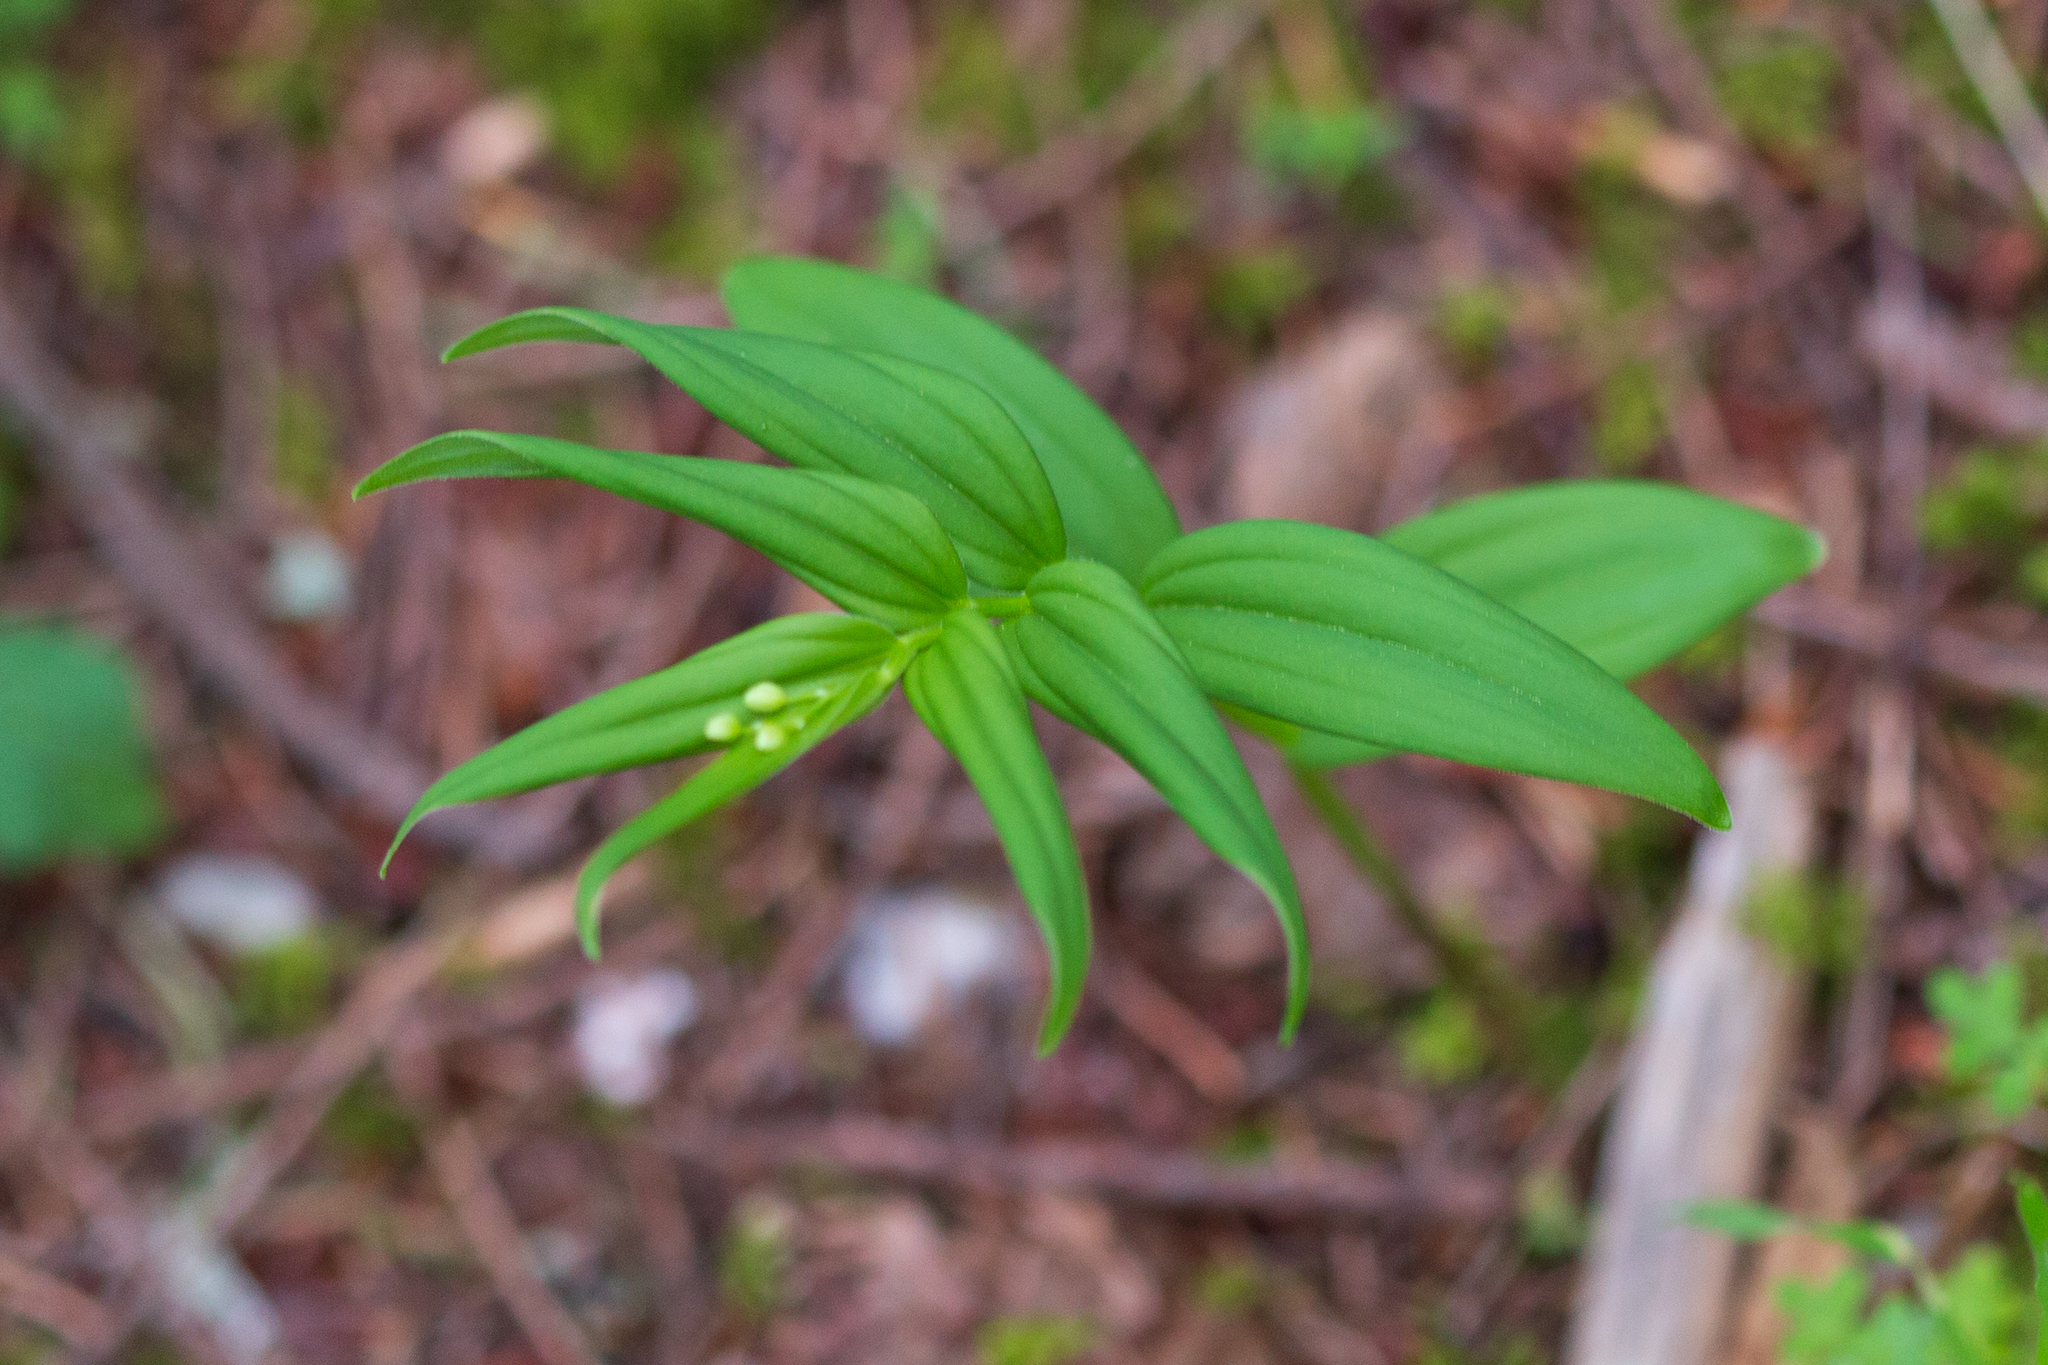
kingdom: Plantae
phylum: Tracheophyta
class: Liliopsida
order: Asparagales
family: Asparagaceae
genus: Maianthemum
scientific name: Maianthemum stellatum
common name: Little false solomon's seal
